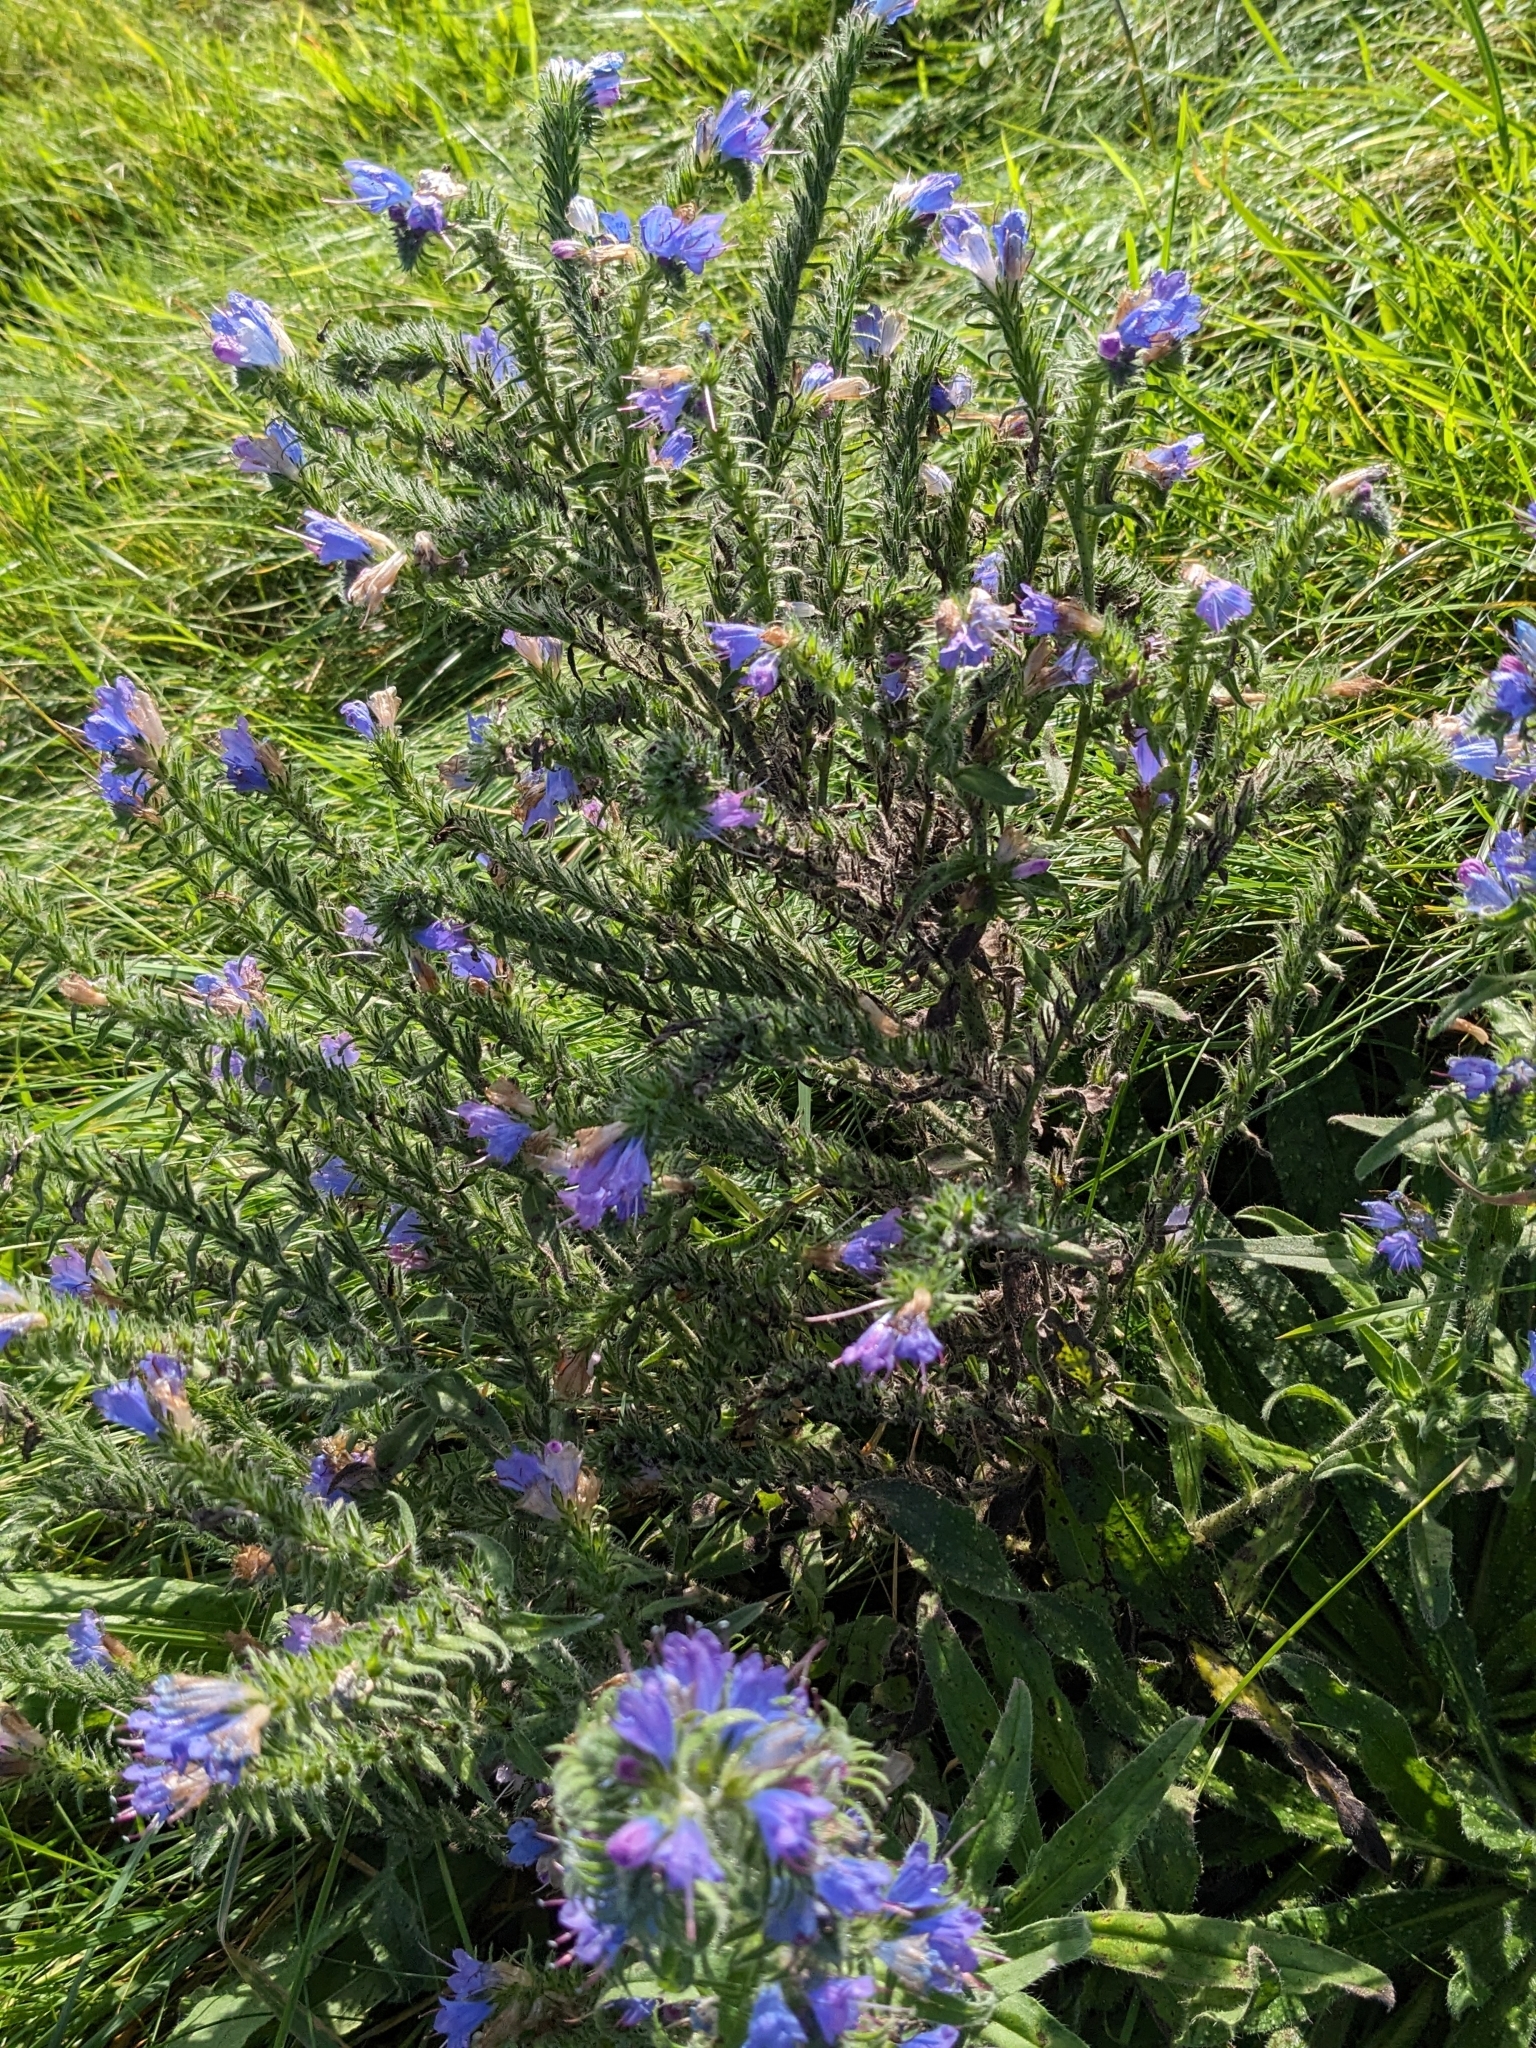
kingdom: Plantae
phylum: Tracheophyta
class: Magnoliopsida
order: Boraginales
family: Boraginaceae
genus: Echium
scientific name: Echium vulgare
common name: Common viper's bugloss
